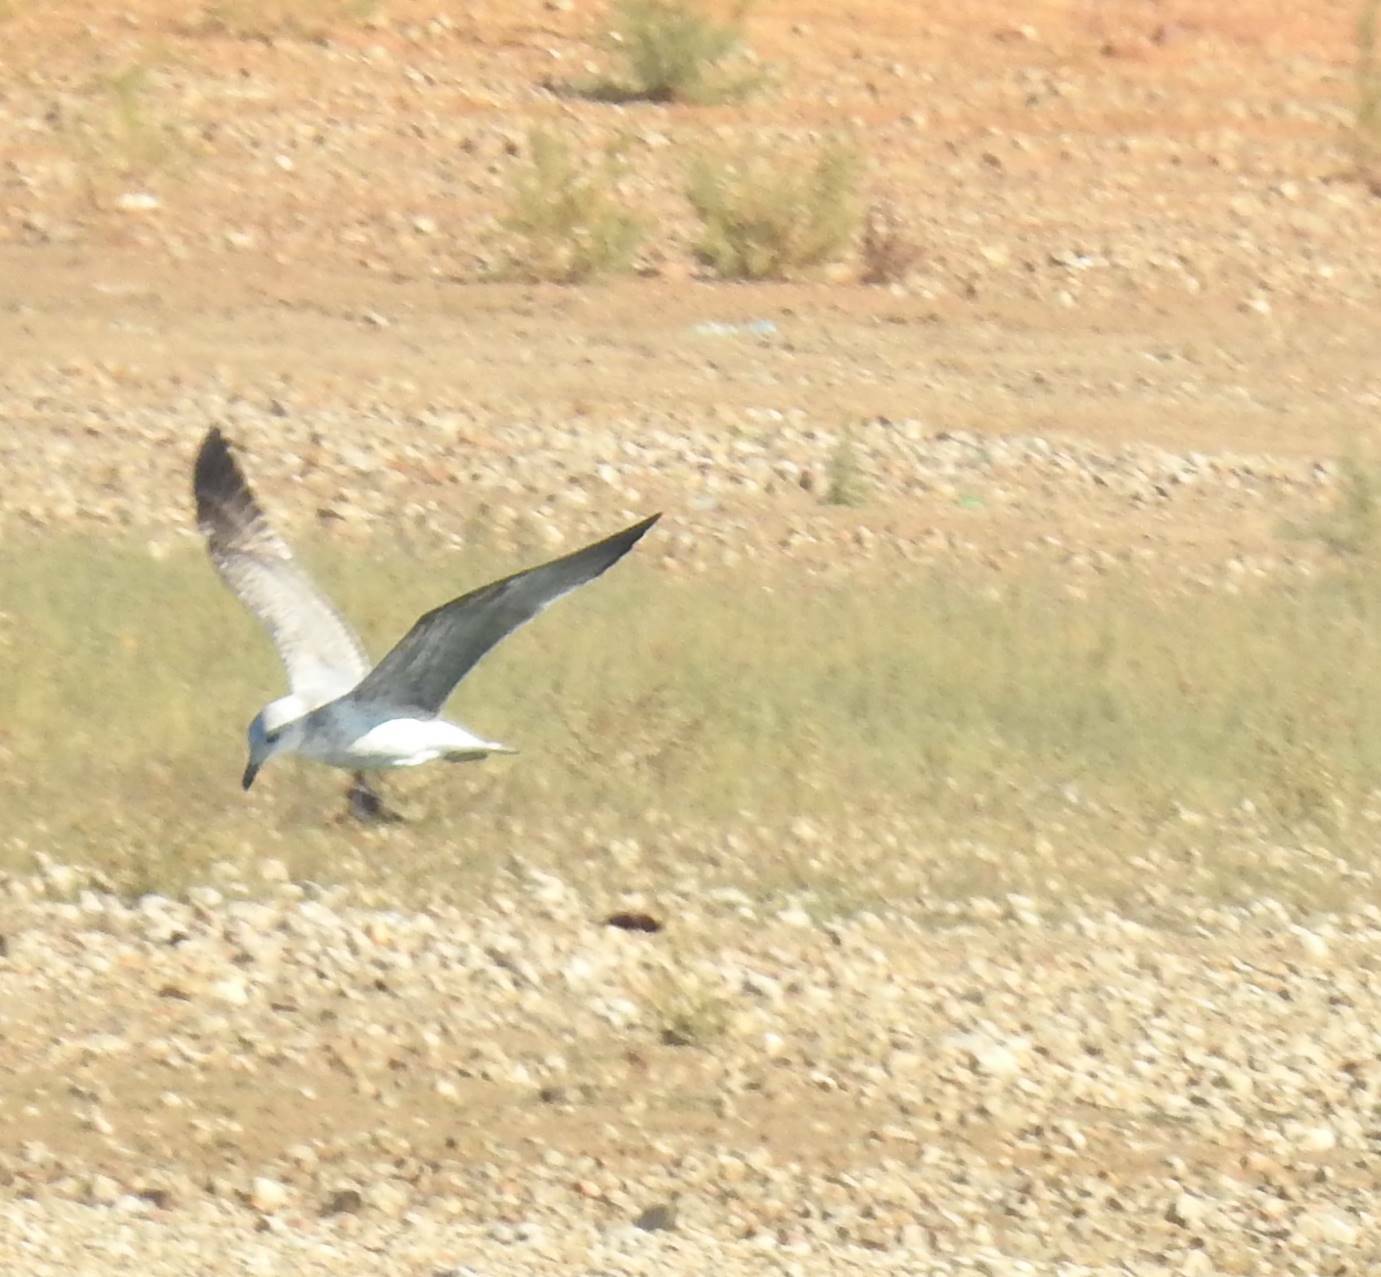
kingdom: Animalia
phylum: Chordata
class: Aves
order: Charadriiformes
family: Laridae
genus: Larus
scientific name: Larus michahellis
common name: Yellow-legged gull
